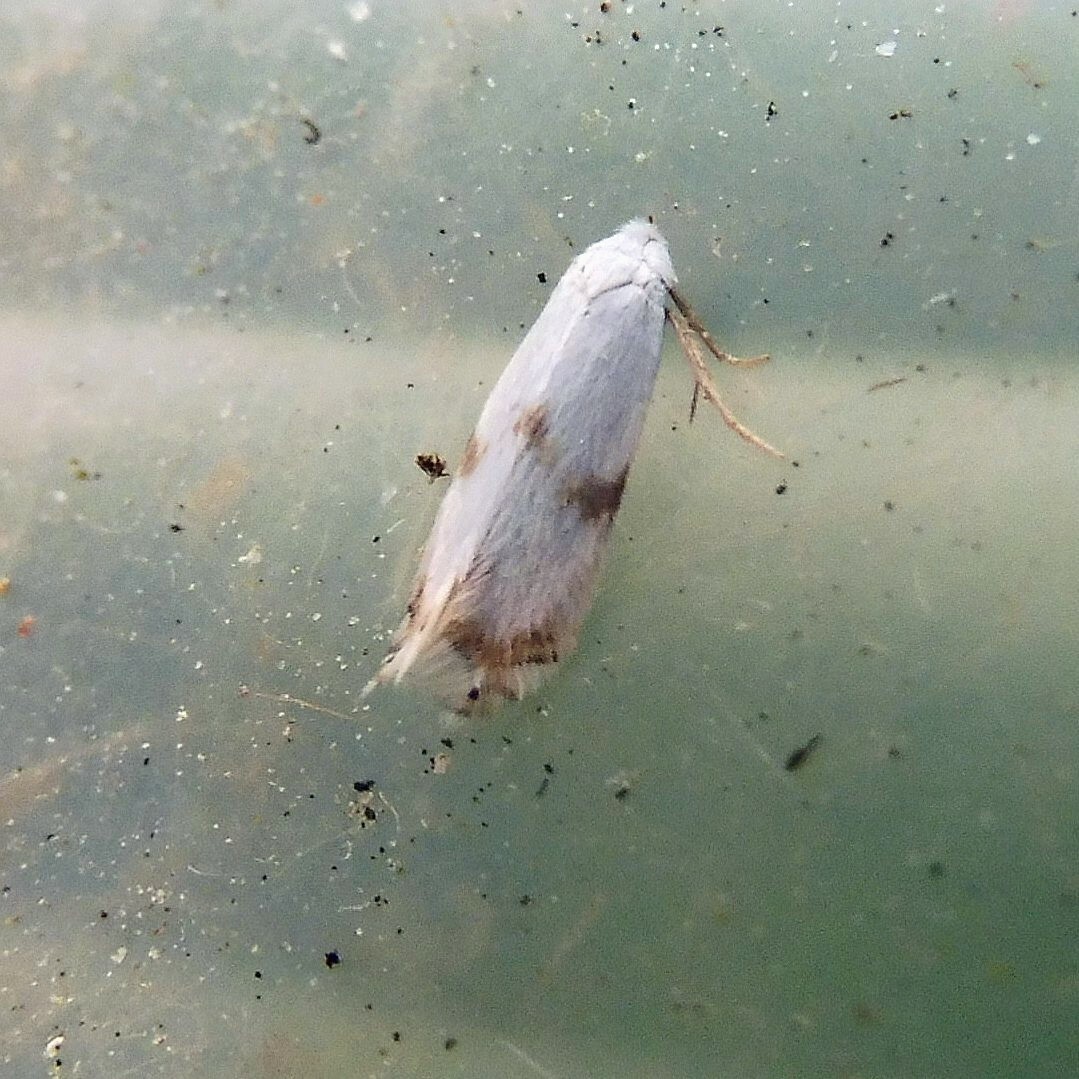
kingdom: Animalia
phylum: Arthropoda
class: Insecta
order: Lepidoptera
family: Opostegidae
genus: Pseudopostega
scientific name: Pseudopostega crepusculella
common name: Mint bent-wing
